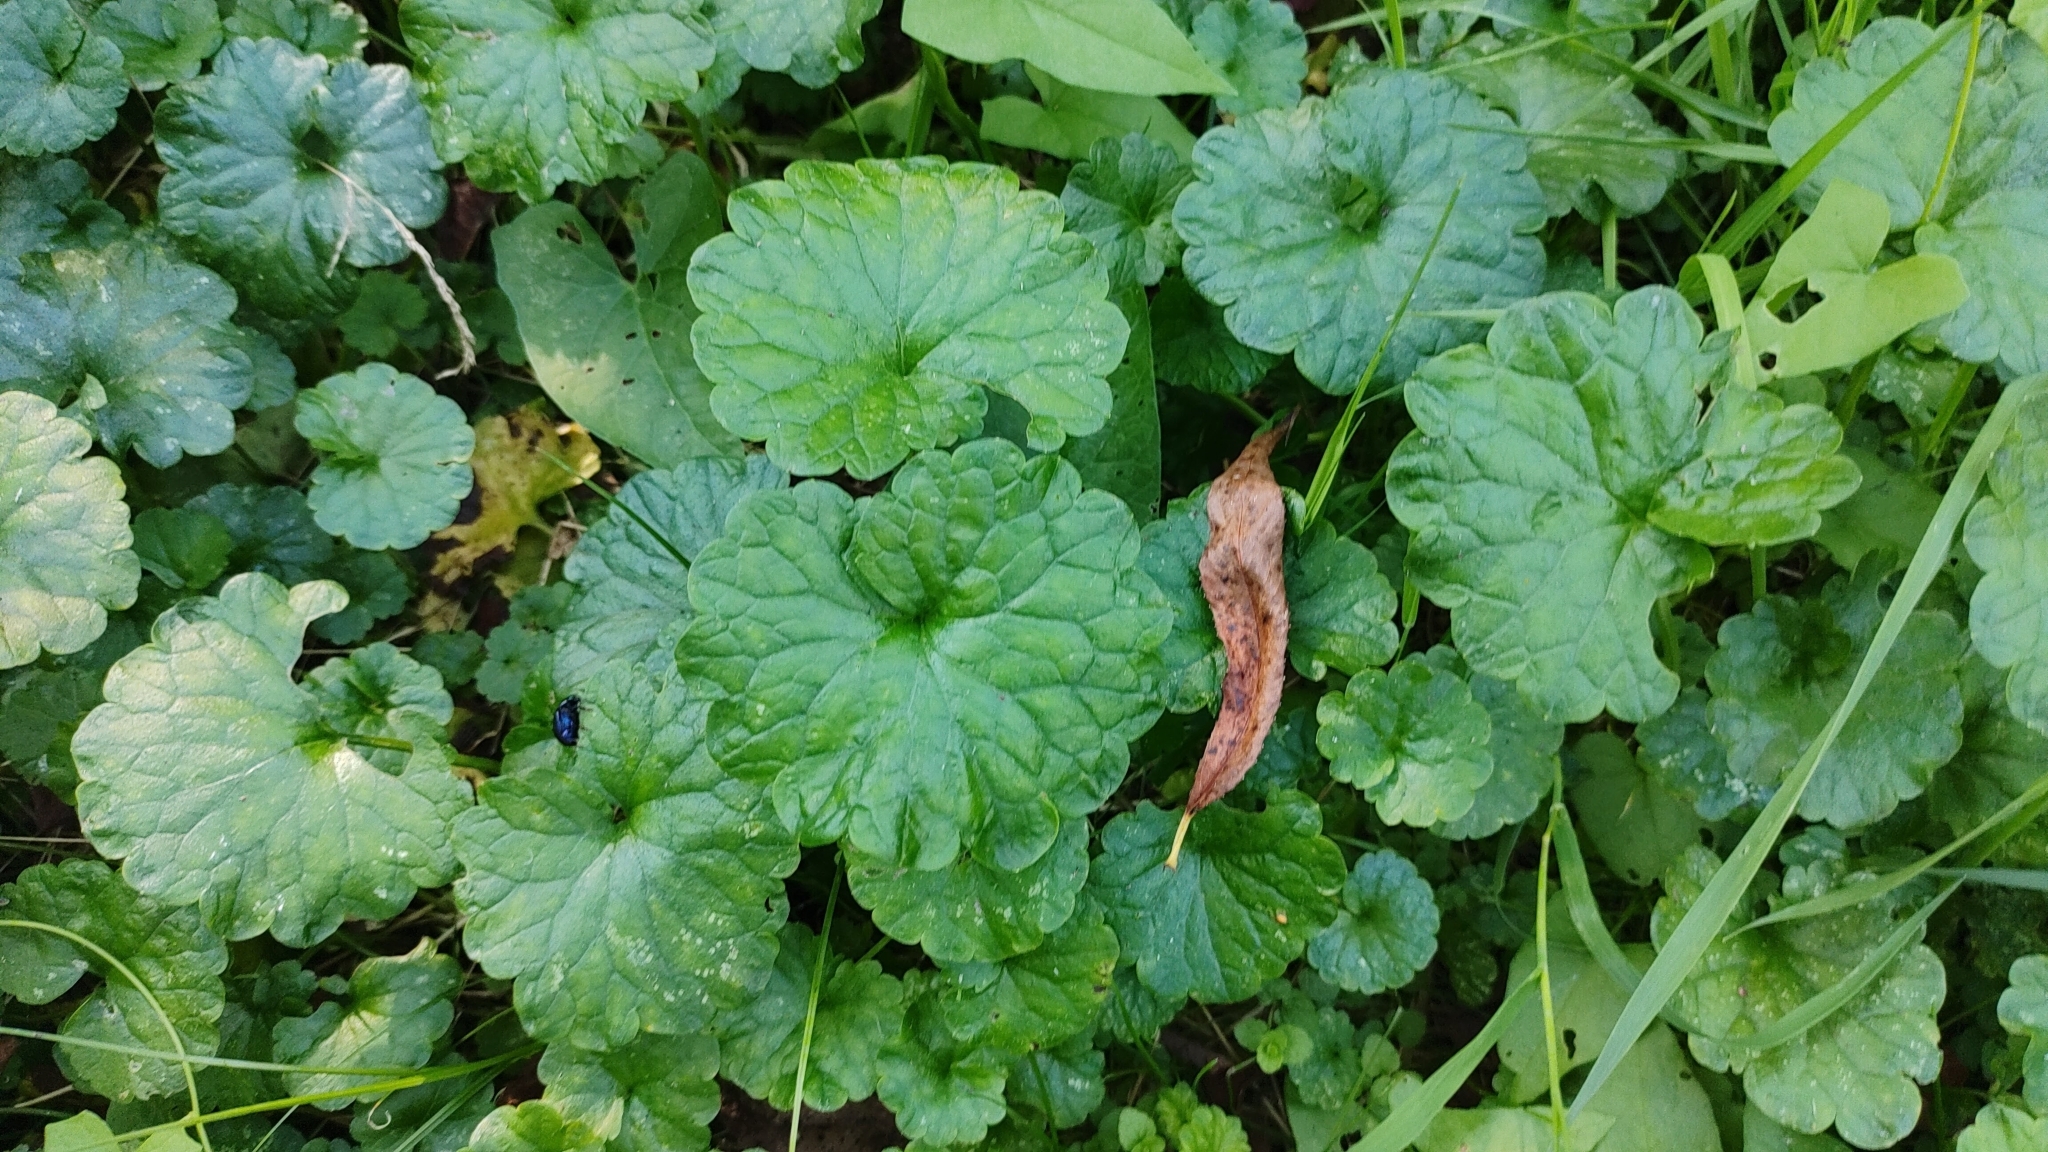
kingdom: Plantae
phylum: Tracheophyta
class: Magnoliopsida
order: Lamiales
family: Lamiaceae
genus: Glechoma
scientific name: Glechoma hederacea
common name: Ground ivy
